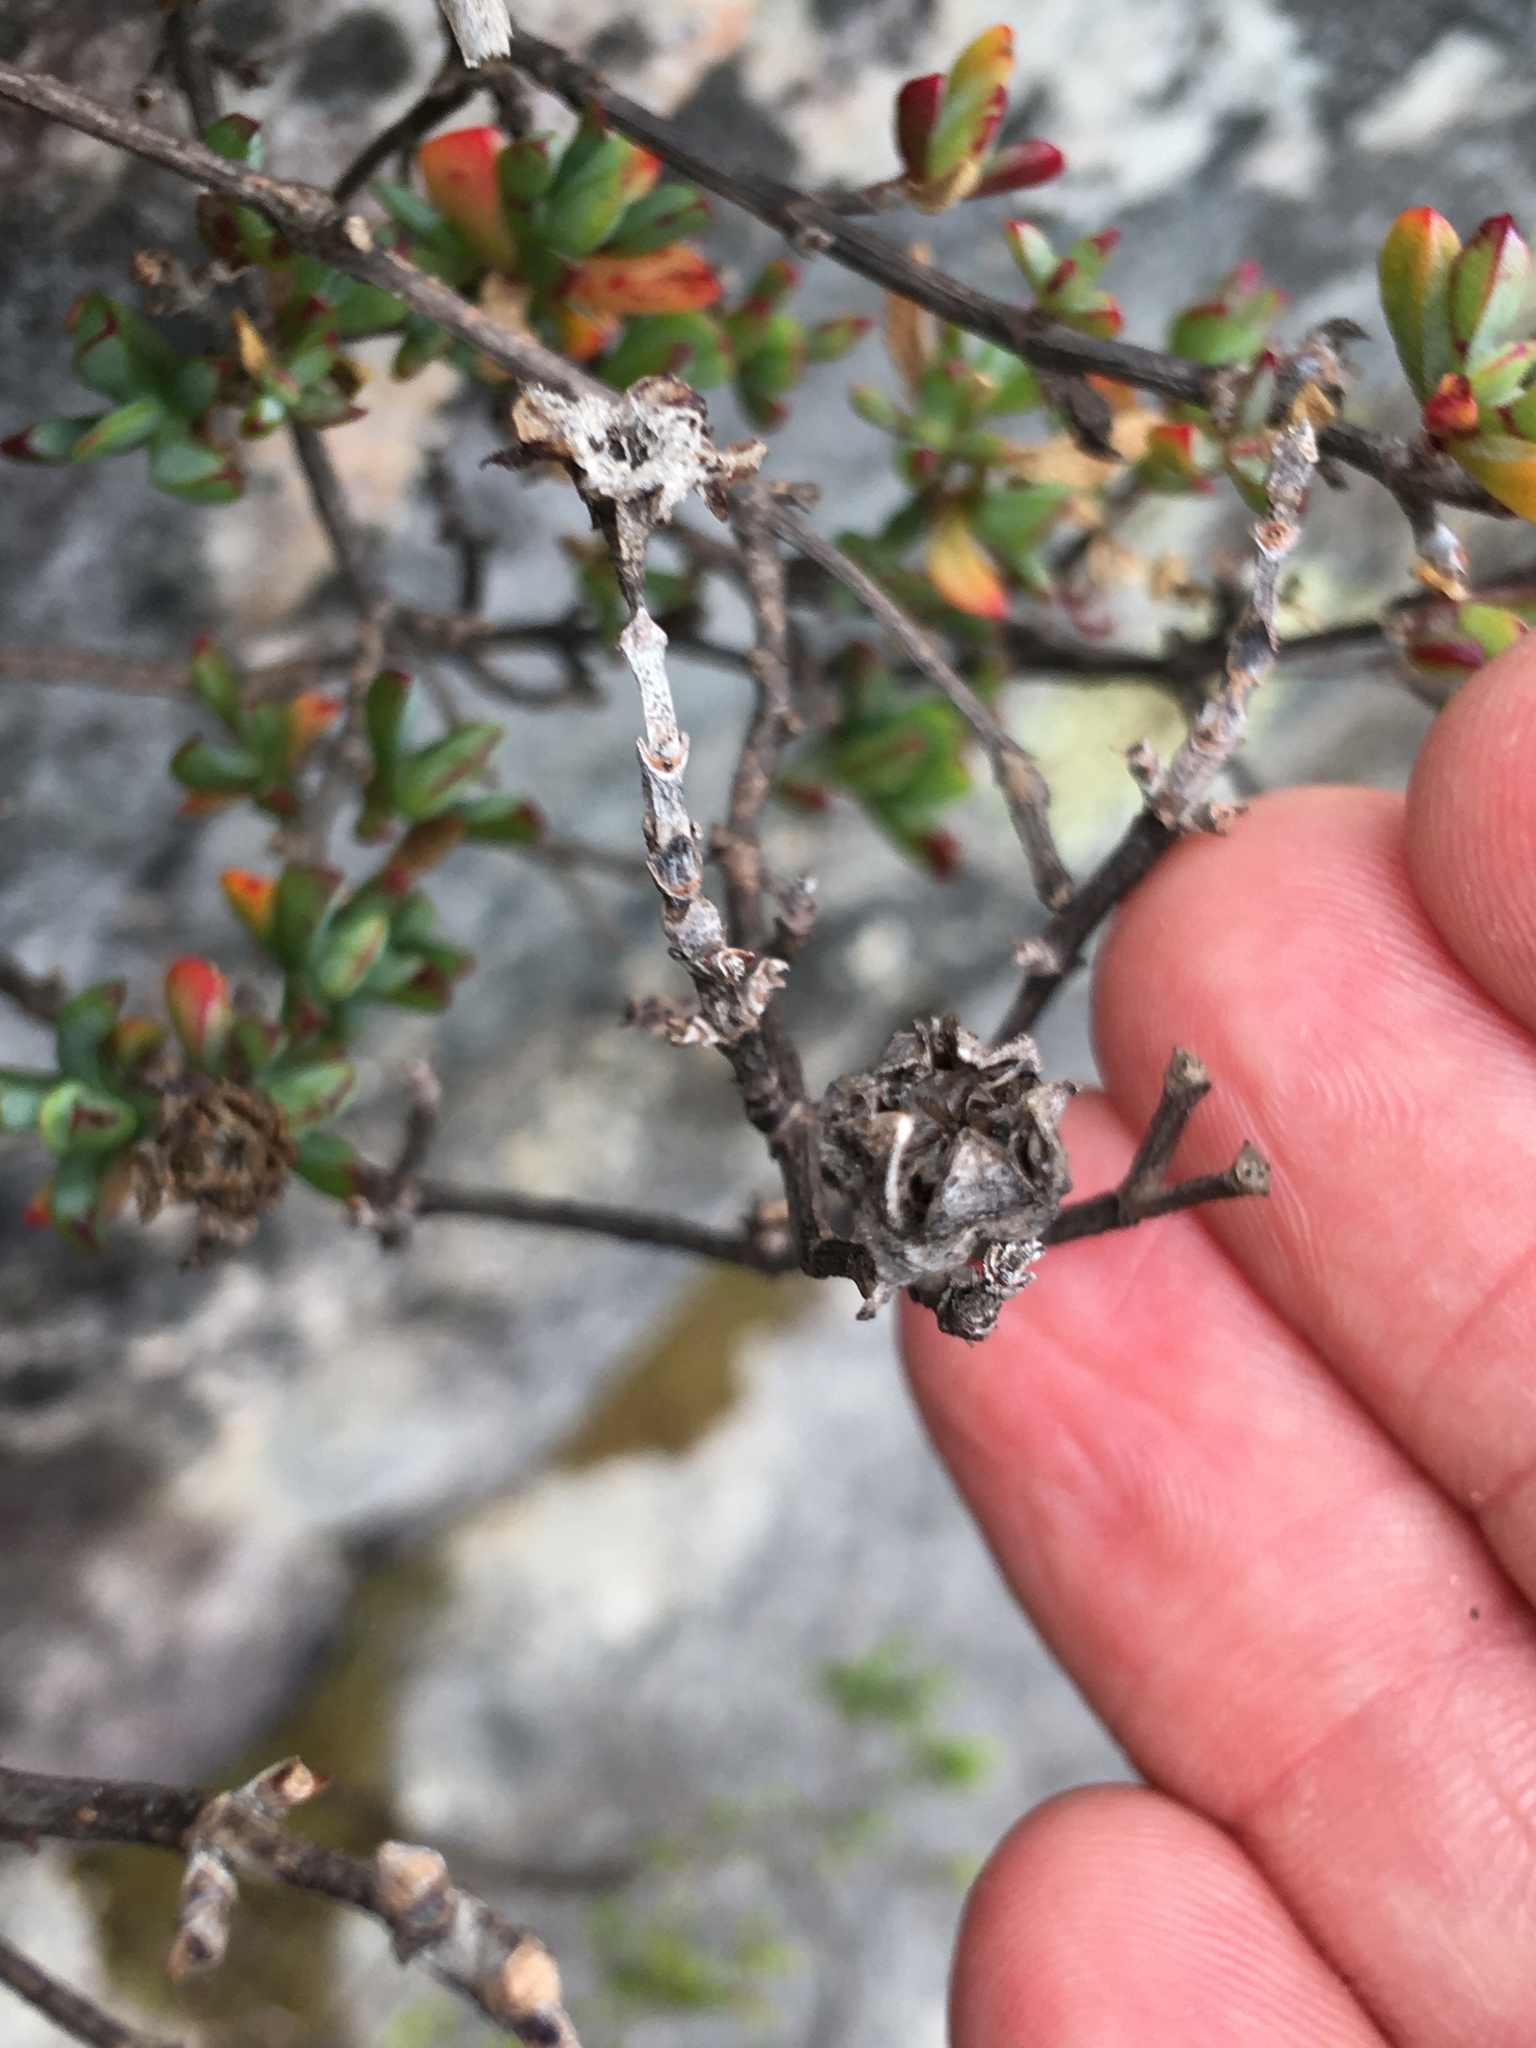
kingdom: Plantae
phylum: Tracheophyta
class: Magnoliopsida
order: Caryophyllales
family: Aizoaceae
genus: Oscularia
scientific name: Oscularia falciformis
